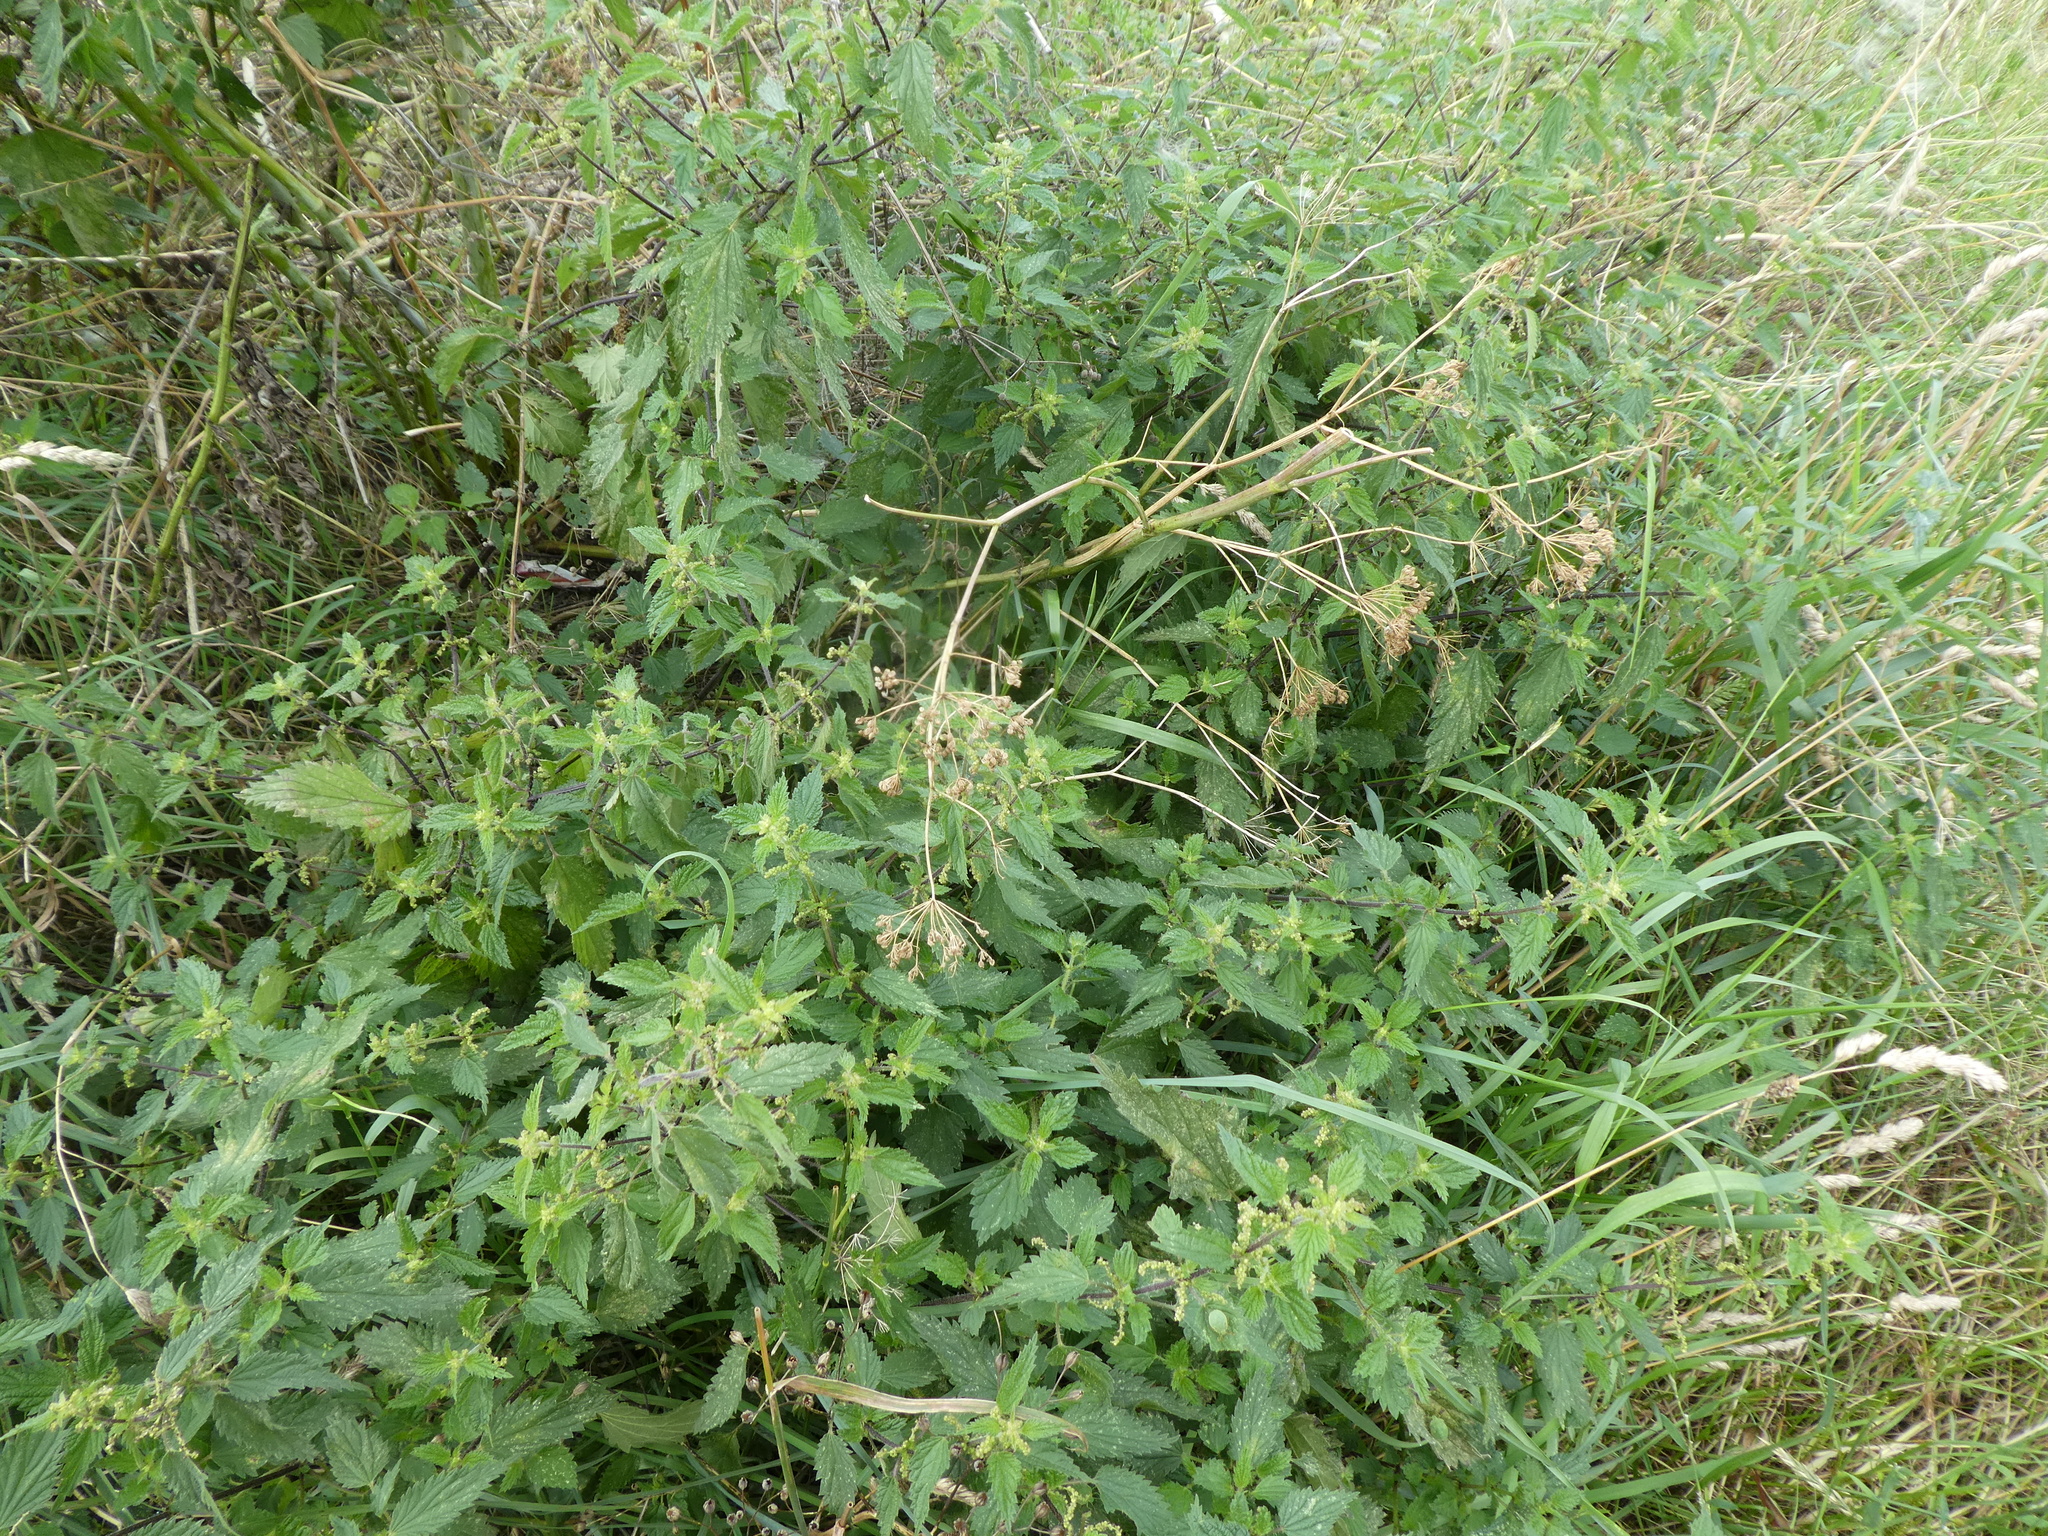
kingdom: Plantae
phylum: Tracheophyta
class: Magnoliopsida
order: Rosales
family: Urticaceae
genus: Urtica
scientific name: Urtica dioica
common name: Common nettle
